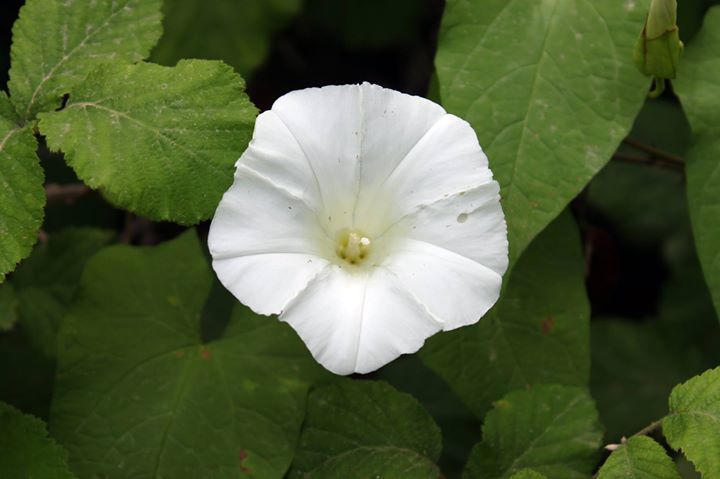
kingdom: Plantae
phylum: Tracheophyta
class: Magnoliopsida
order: Solanales
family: Convolvulaceae
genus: Calystegia
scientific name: Calystegia silvatica
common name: Large bindweed
